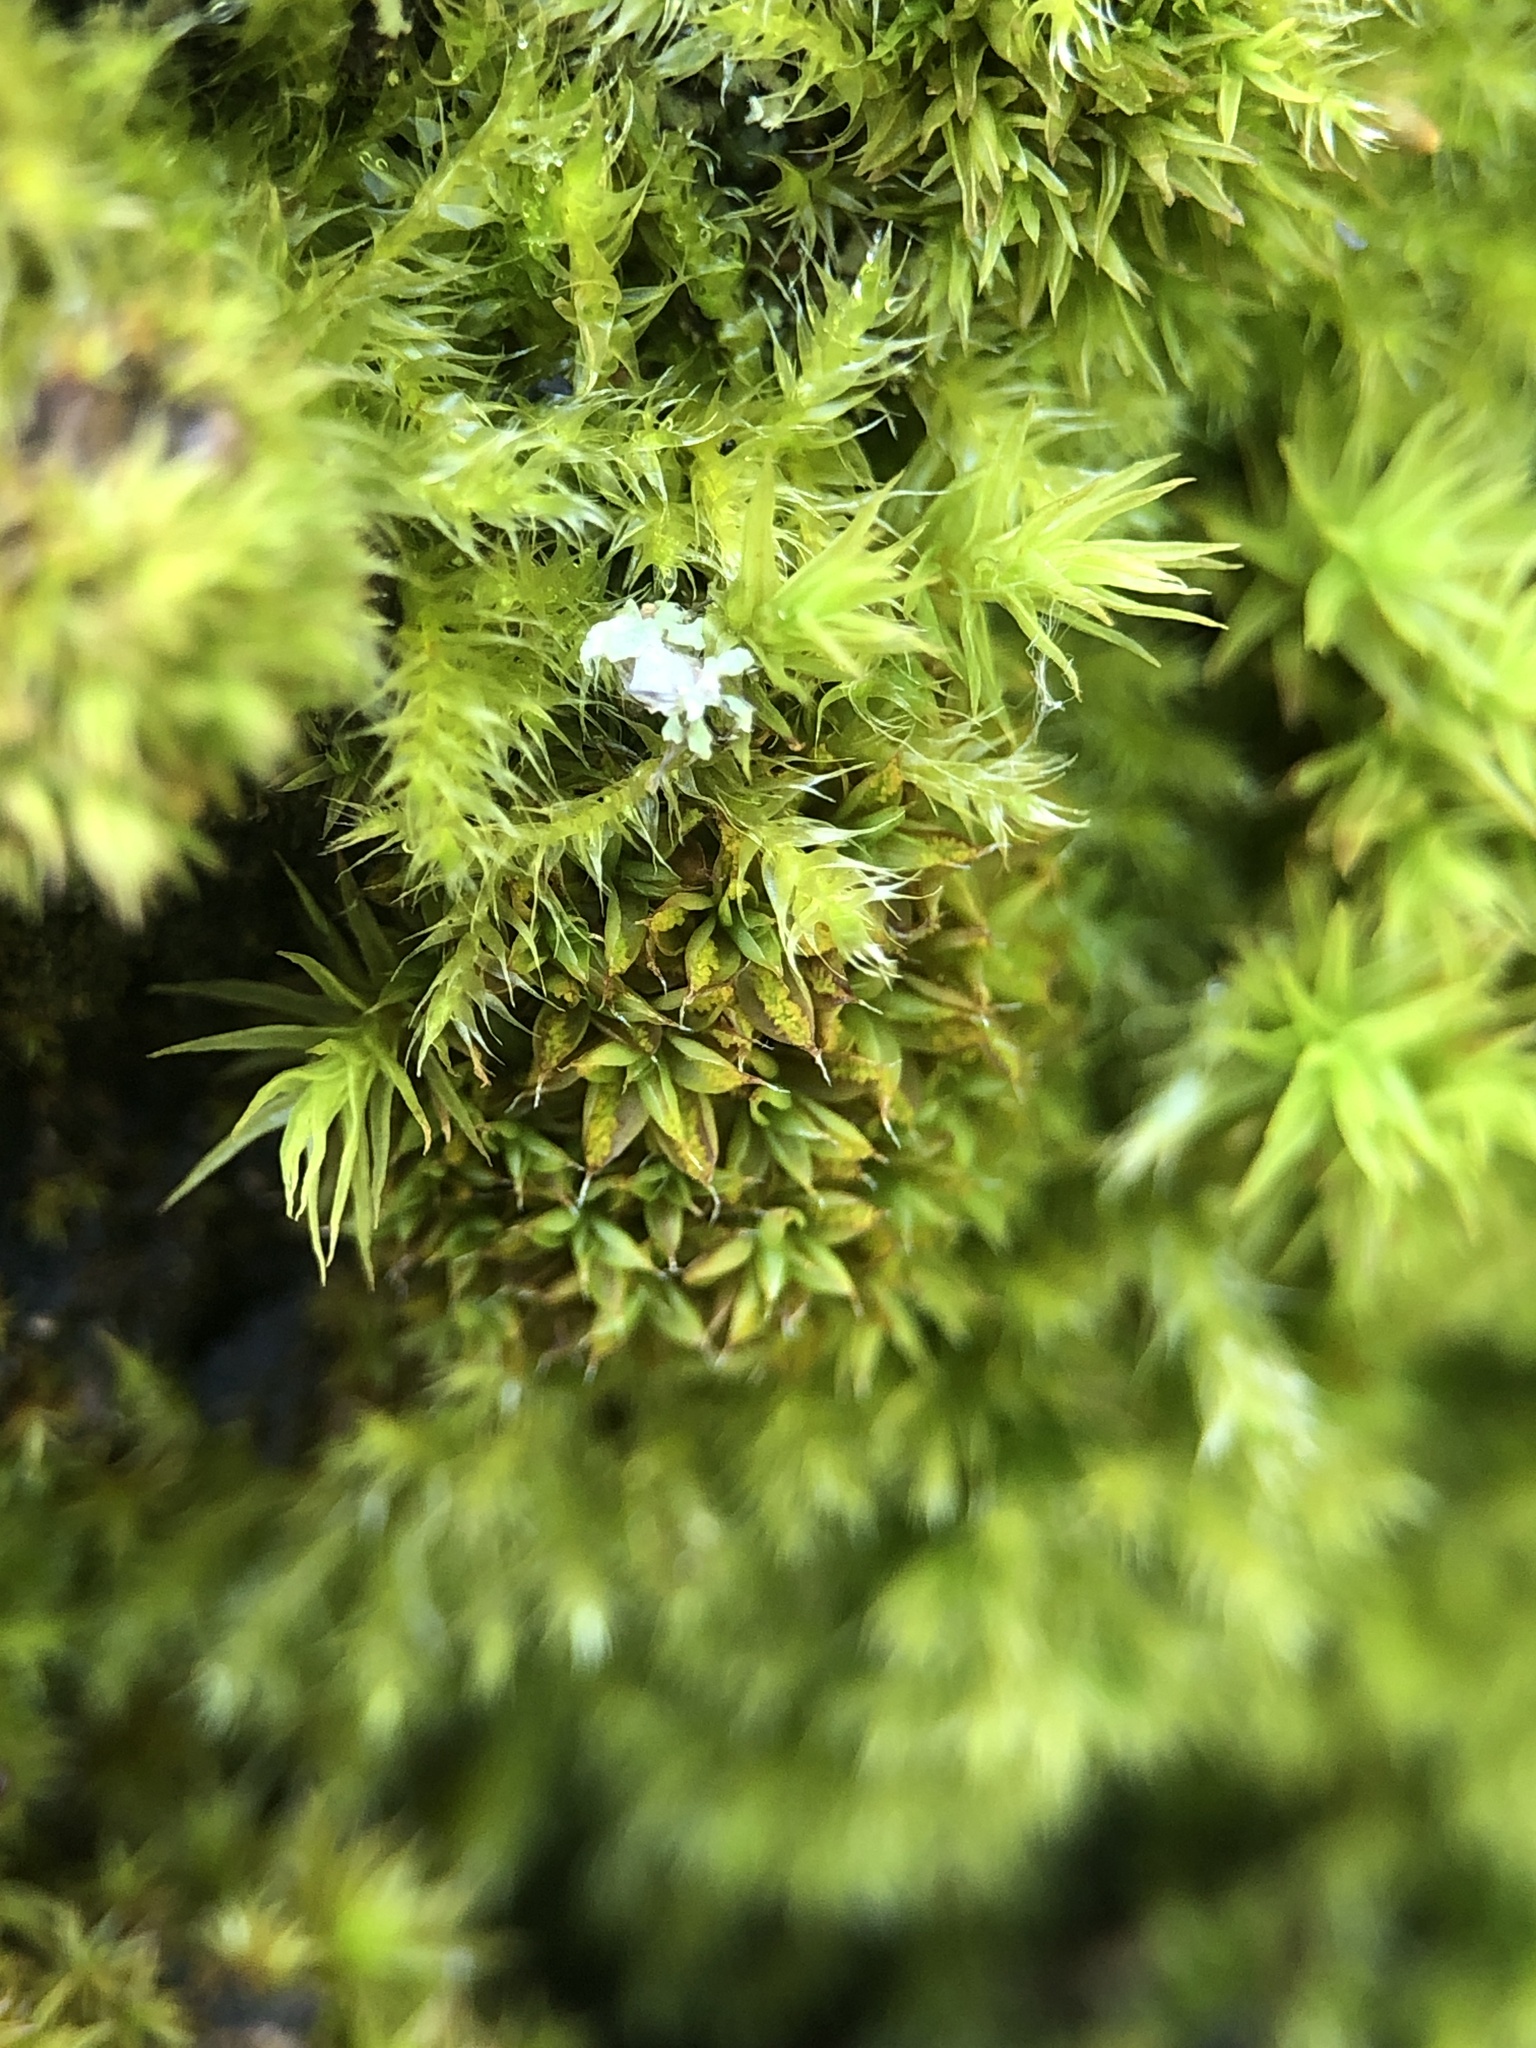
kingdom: Plantae
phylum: Bryophyta
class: Bryopsida
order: Pottiales
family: Pottiaceae
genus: Syntrichia
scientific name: Syntrichia papillosa
